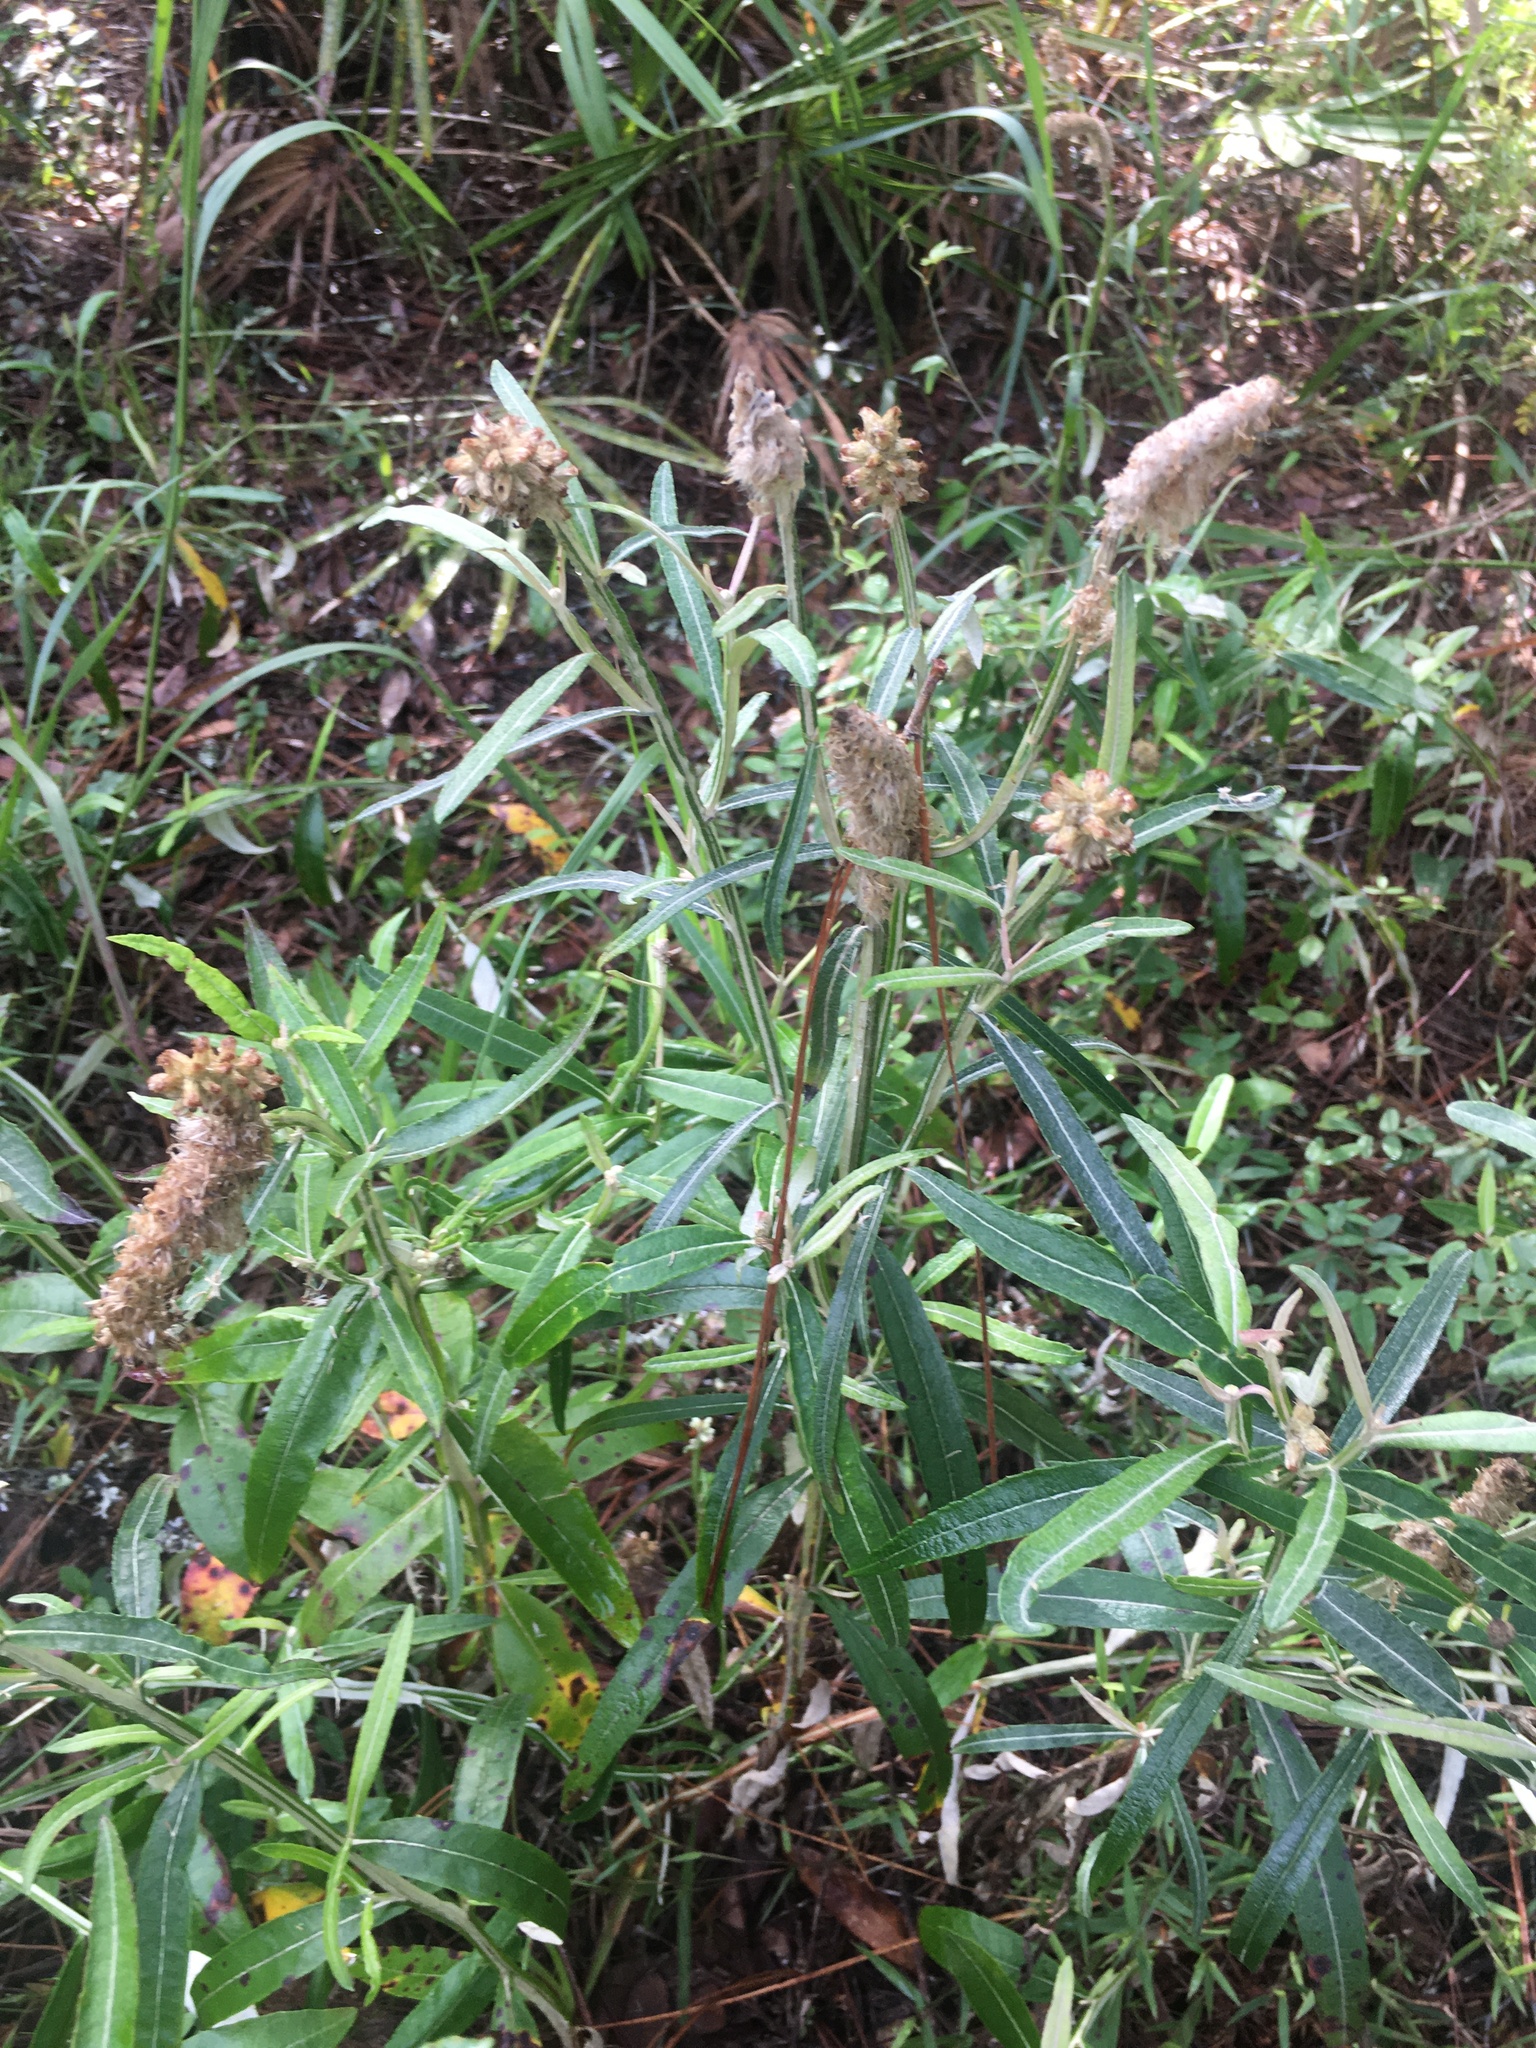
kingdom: Plantae
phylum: Tracheophyta
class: Magnoliopsida
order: Asterales
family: Asteraceae
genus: Pterocaulon
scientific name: Pterocaulon pycnostachyum
